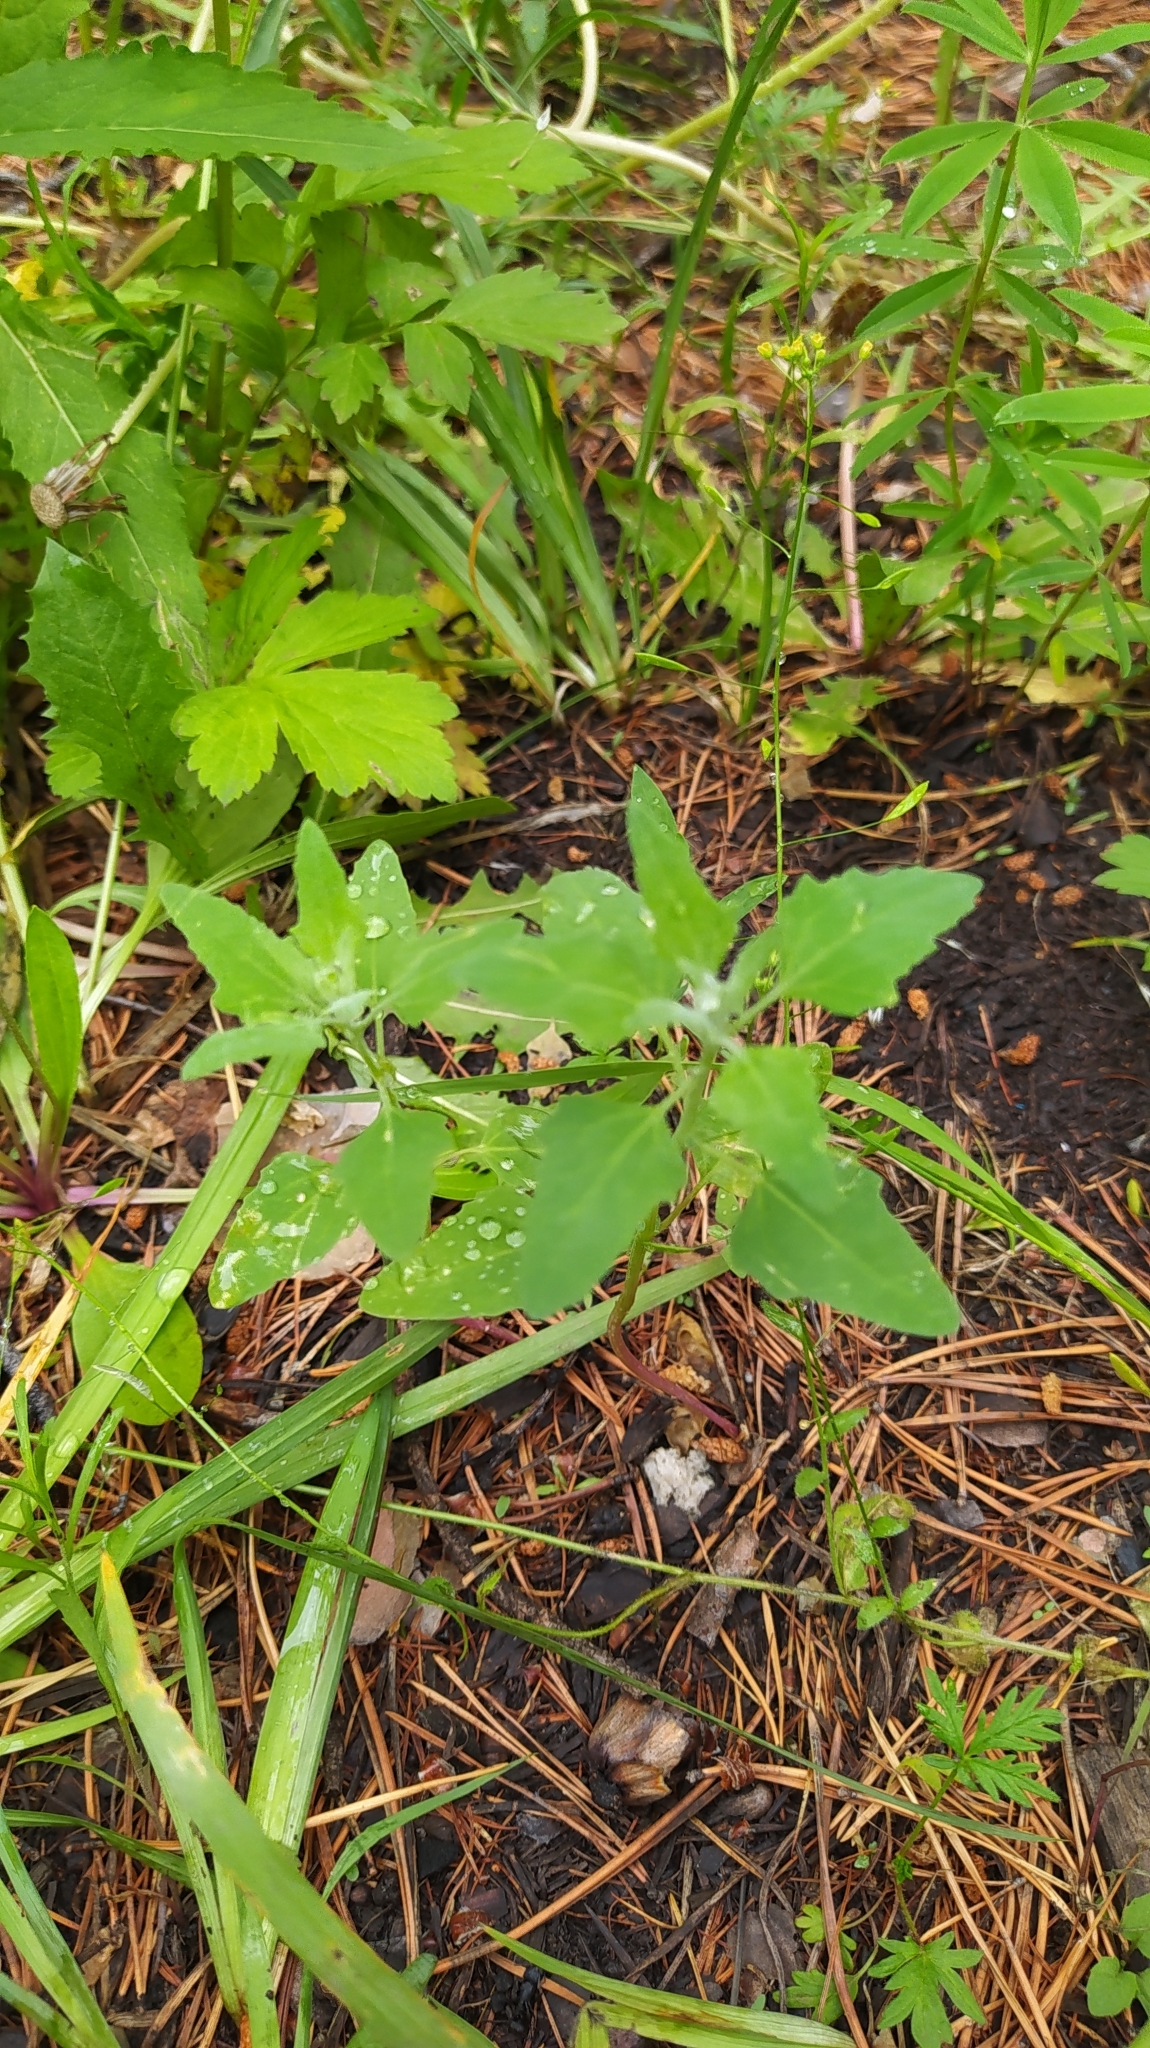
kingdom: Plantae
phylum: Tracheophyta
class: Magnoliopsida
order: Caryophyllales
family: Amaranthaceae
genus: Chenopodium
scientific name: Chenopodium album
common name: Fat-hen
